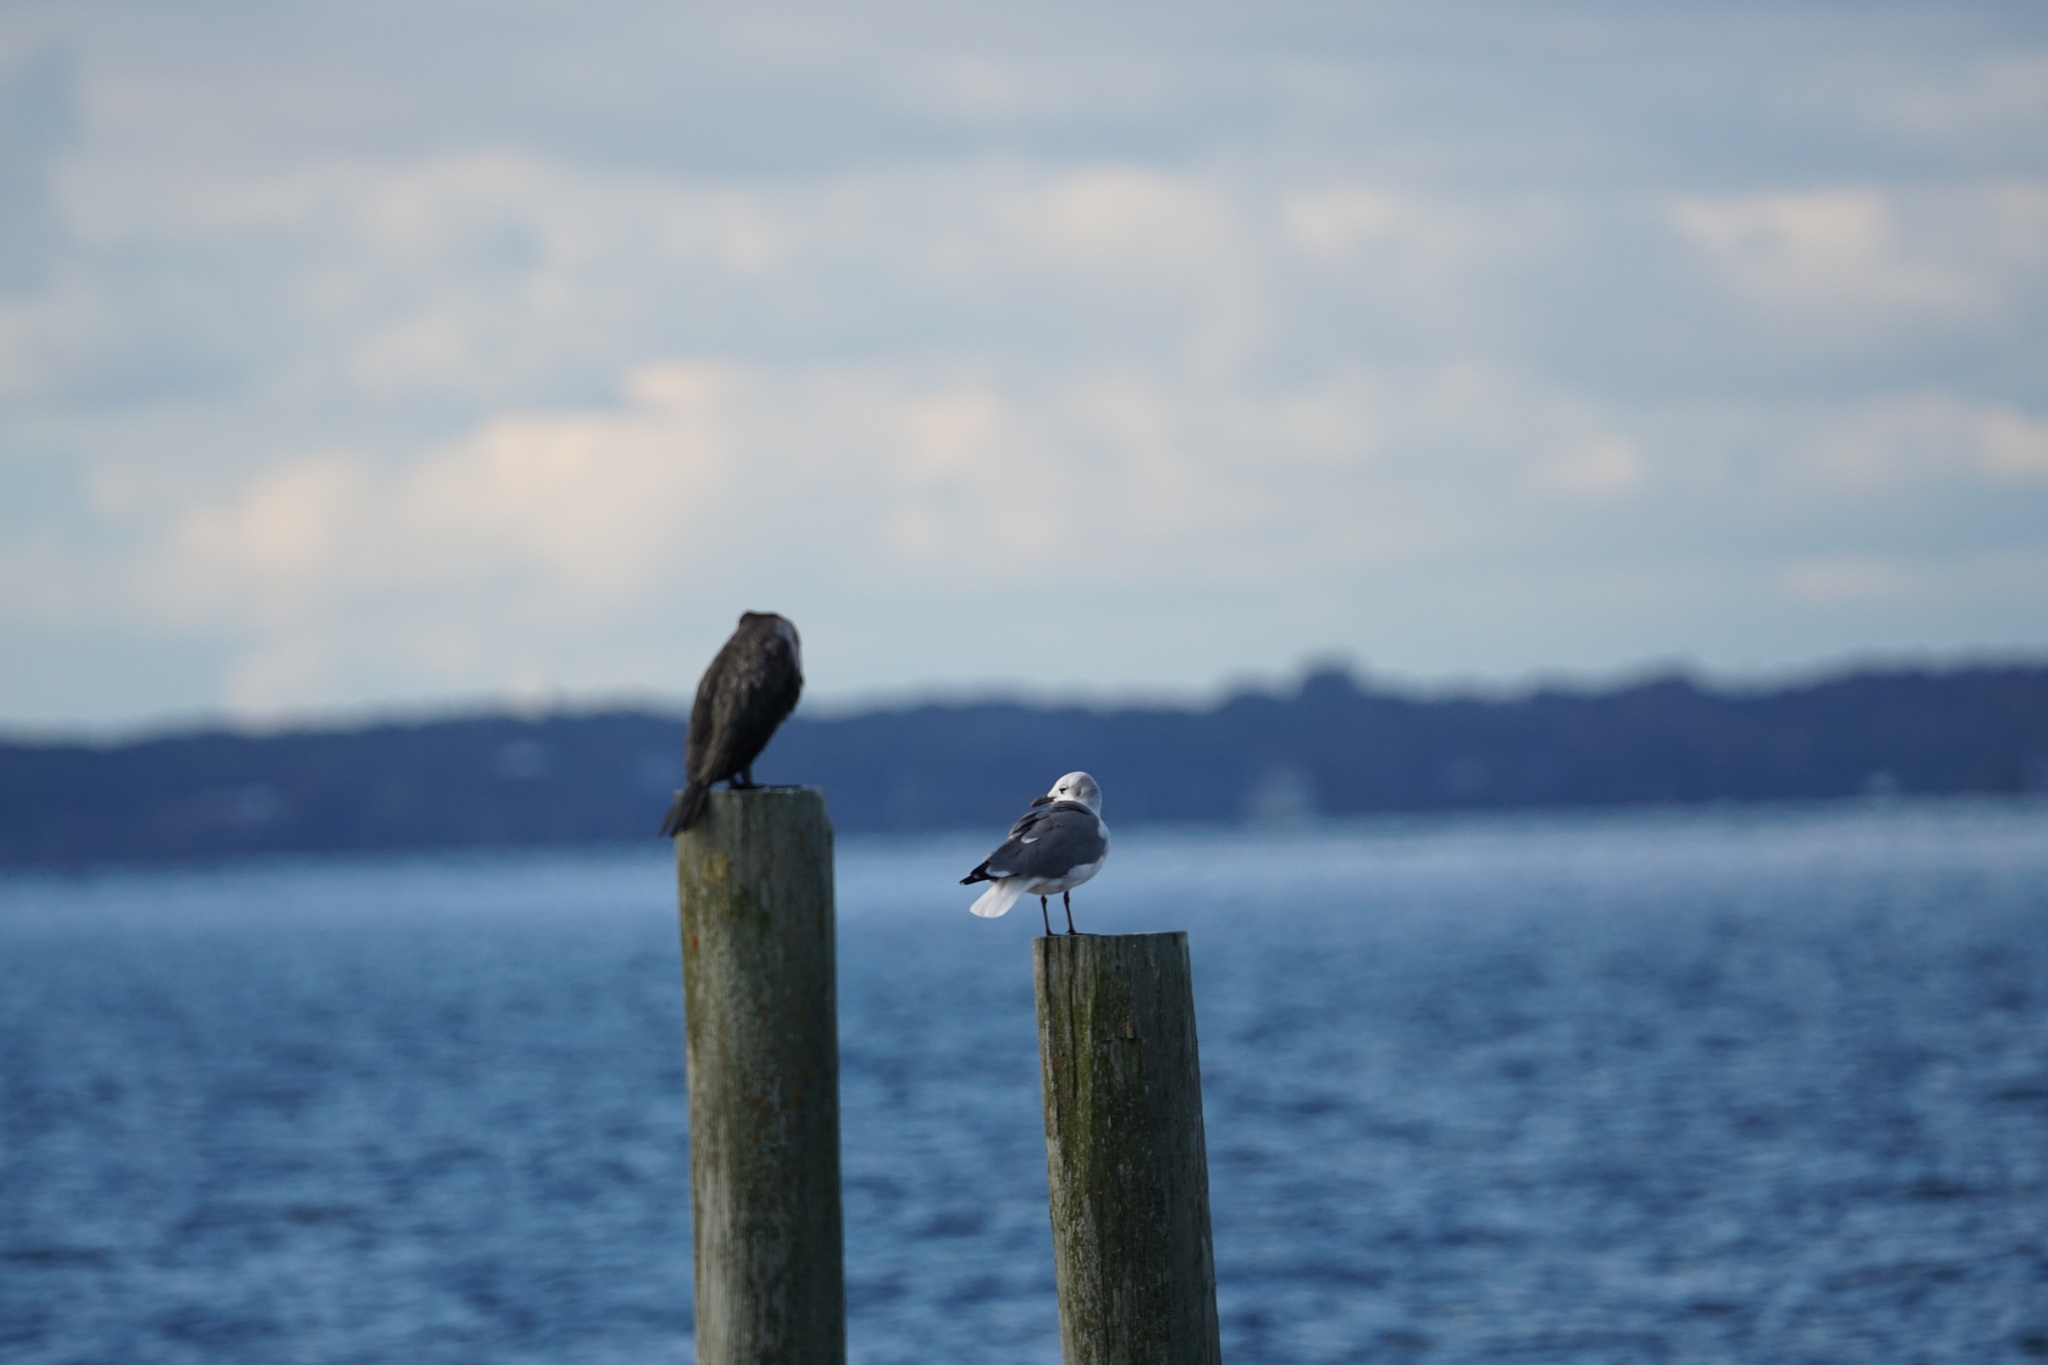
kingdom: Animalia
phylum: Chordata
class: Aves
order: Charadriiformes
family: Laridae
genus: Leucophaeus
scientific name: Leucophaeus atricilla
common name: Laughing gull
